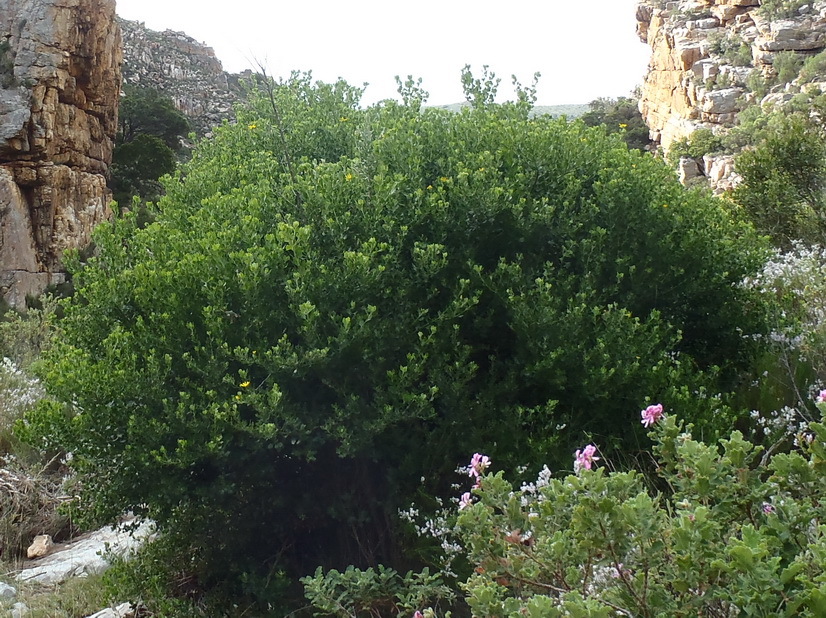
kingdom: Plantae
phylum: Tracheophyta
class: Magnoliopsida
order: Asterales
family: Asteraceae
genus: Osteospermum
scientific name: Osteospermum moniliferum
